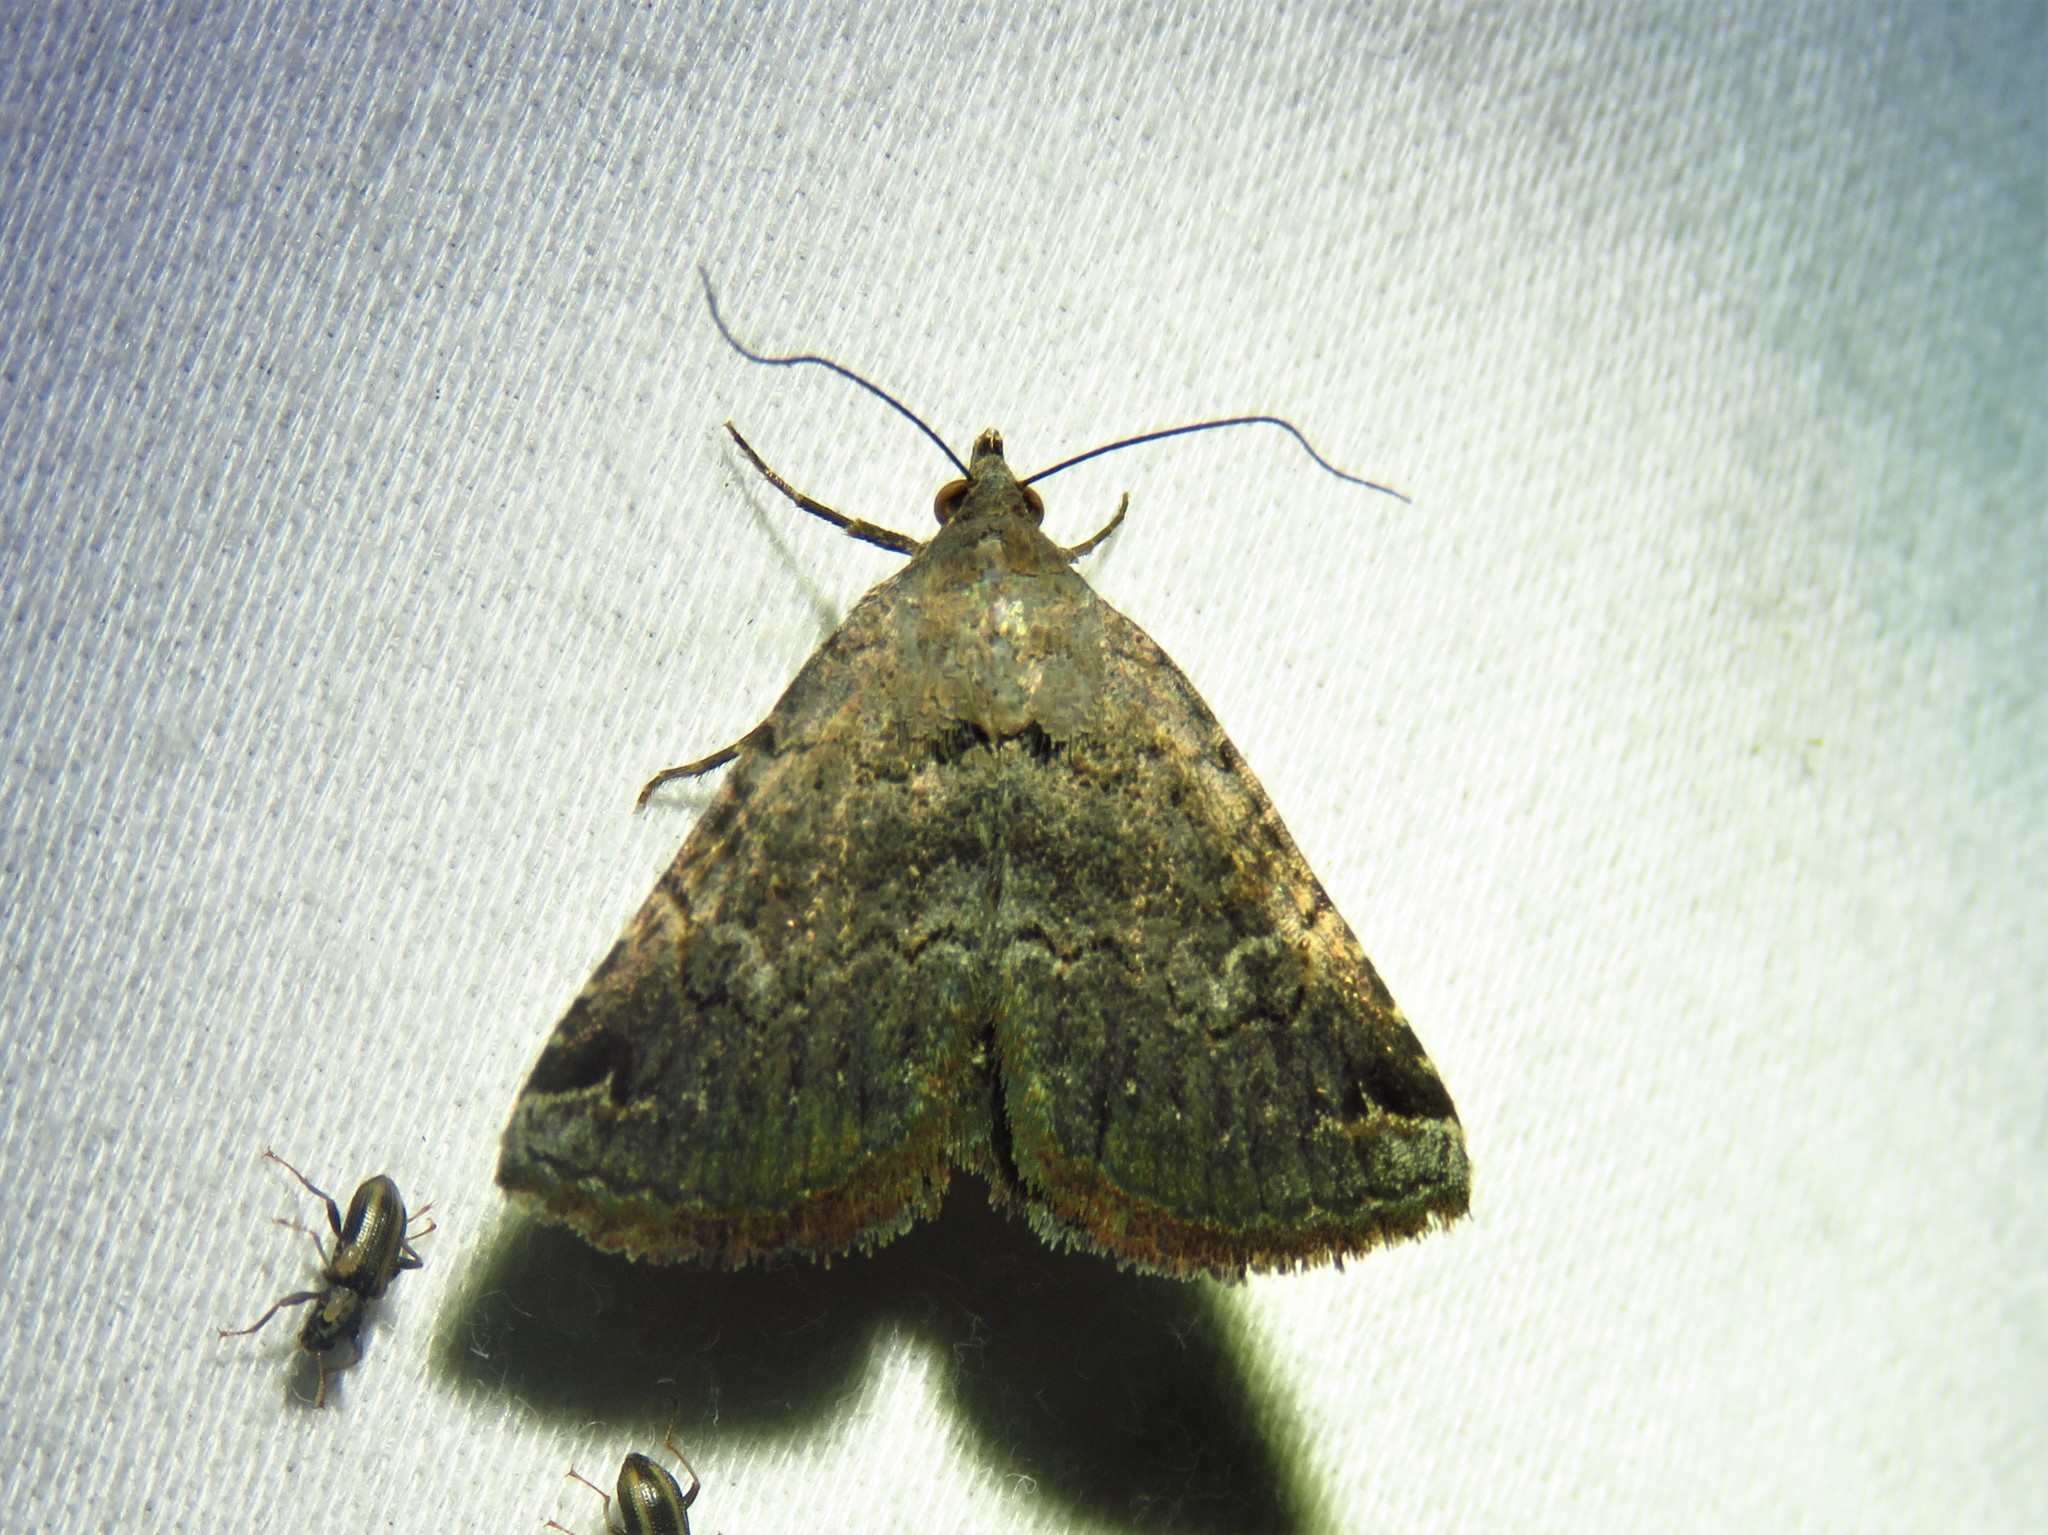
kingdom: Animalia
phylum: Arthropoda
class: Insecta
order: Lepidoptera
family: Erebidae
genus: Toxonprucha
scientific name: Toxonprucha crudelis
